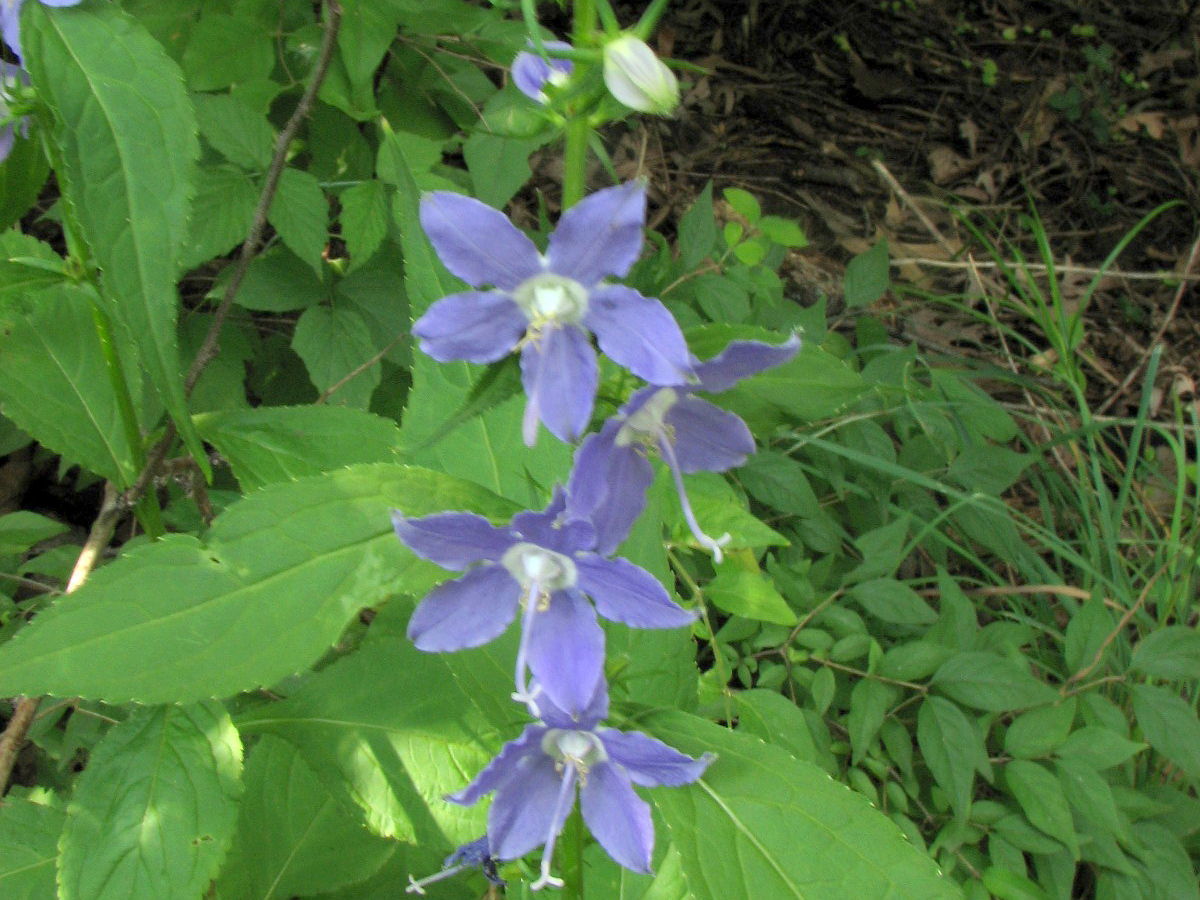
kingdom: Plantae
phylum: Tracheophyta
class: Magnoliopsida
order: Asterales
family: Campanulaceae
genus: Campanulastrum
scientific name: Campanulastrum americanum
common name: American bellflower
